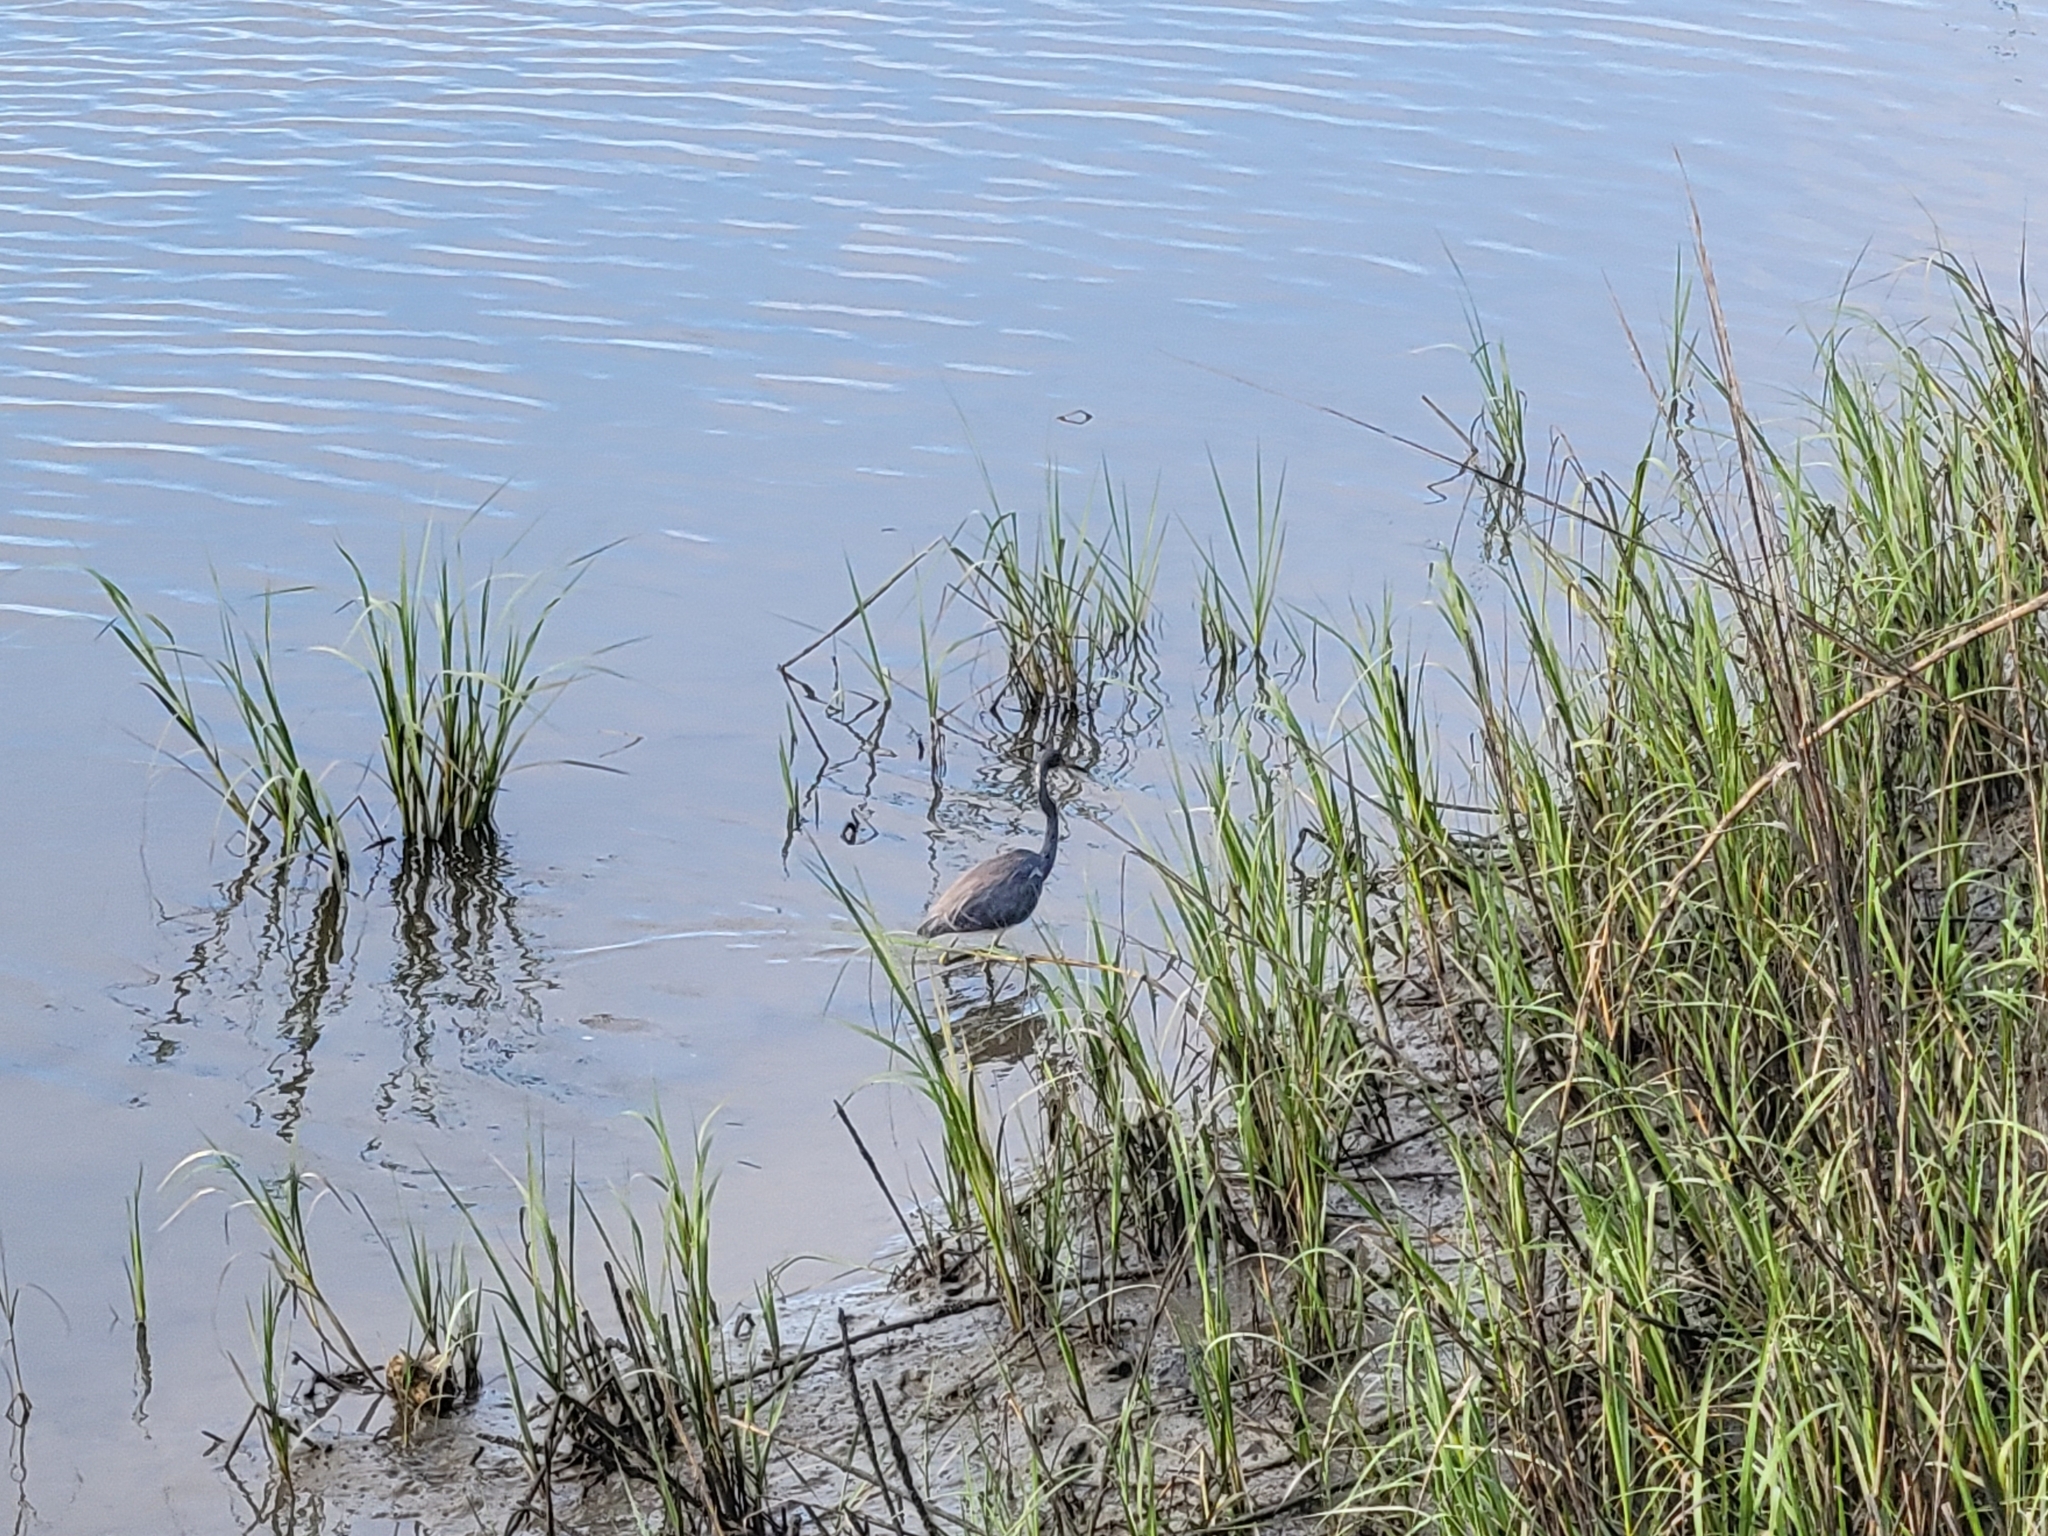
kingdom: Animalia
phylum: Chordata
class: Aves
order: Pelecaniformes
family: Ardeidae
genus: Egretta
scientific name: Egretta tricolor
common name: Tricolored heron
